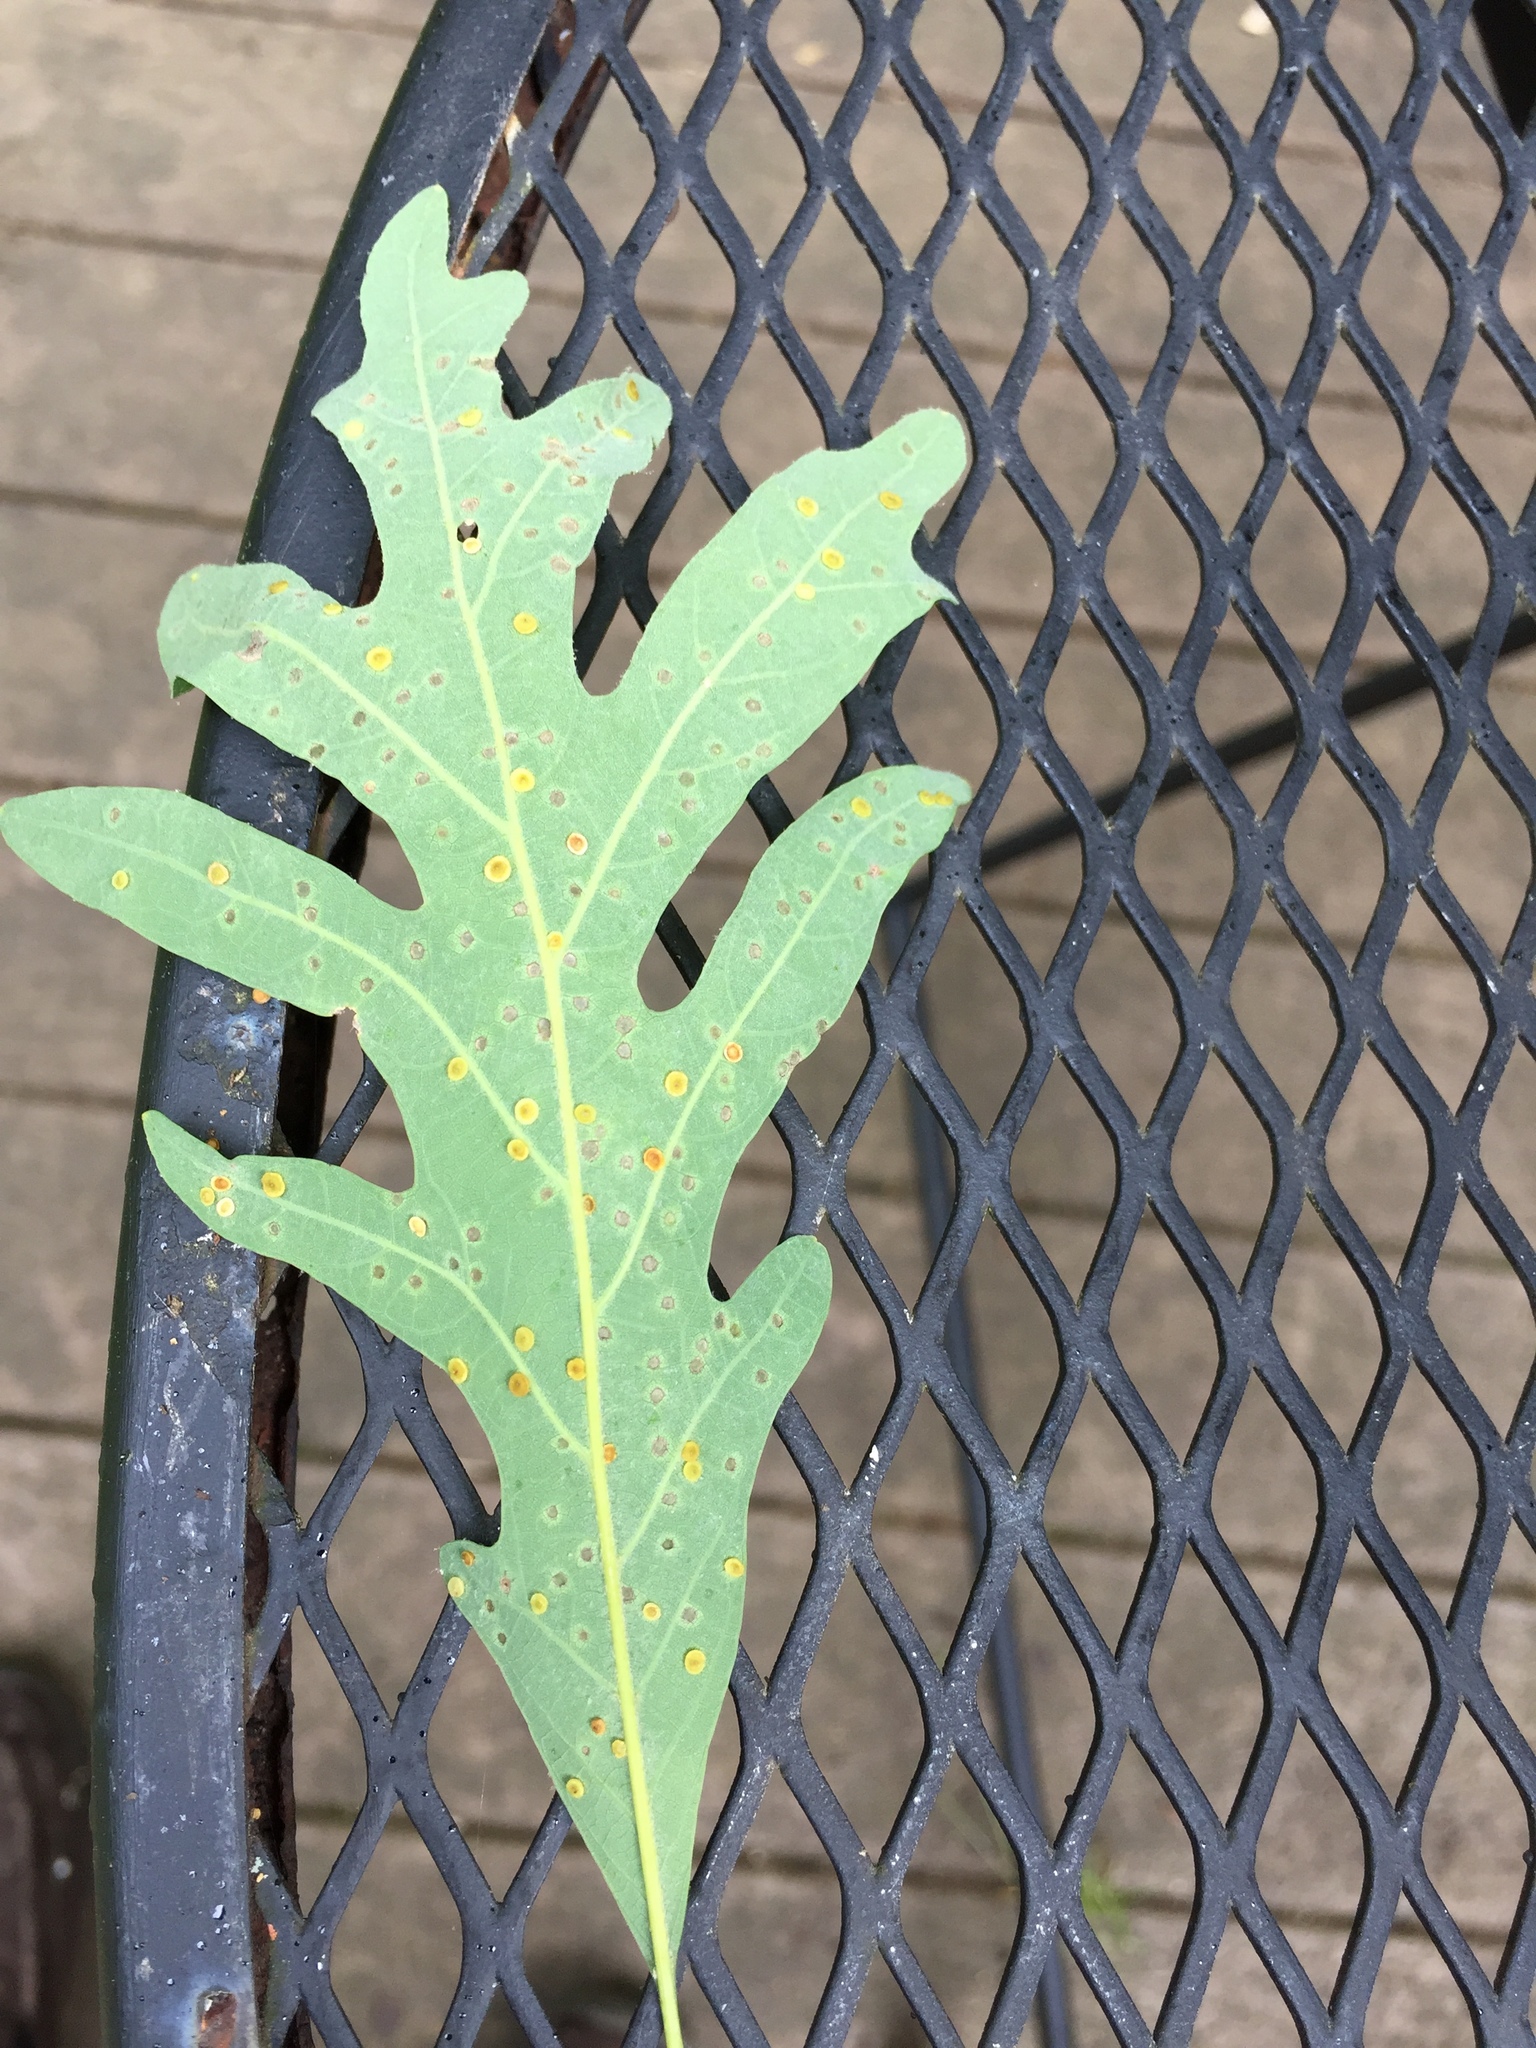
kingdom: Animalia
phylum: Arthropoda
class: Insecta
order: Hymenoptera
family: Cynipidae
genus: Neuroterus
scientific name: Neuroterus
